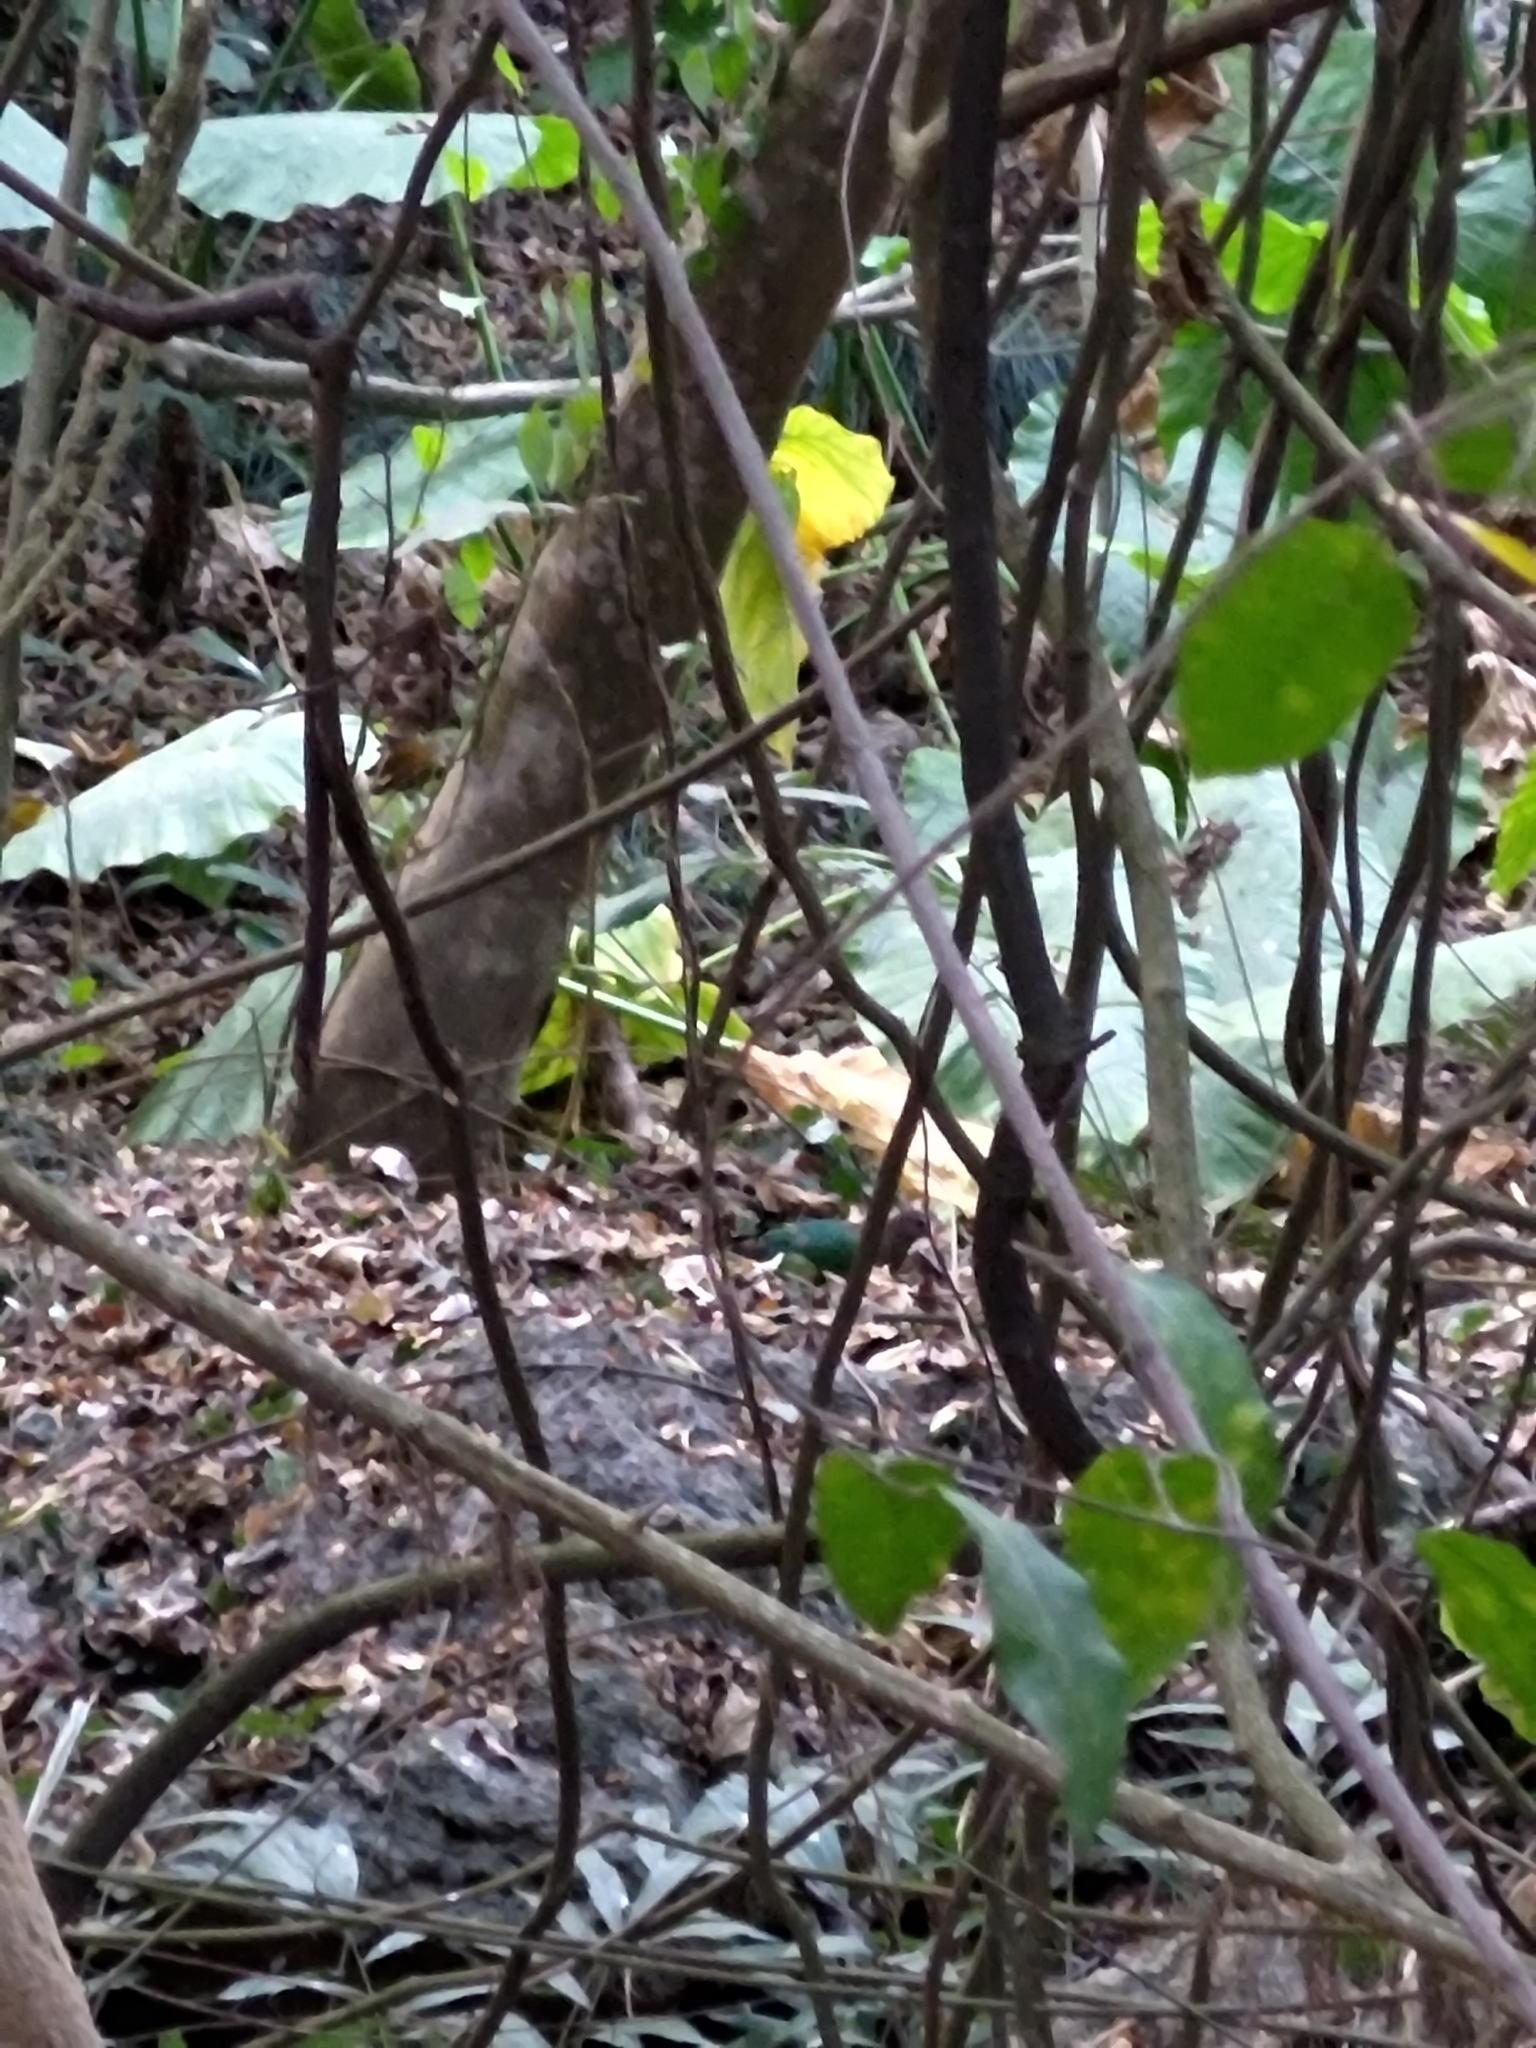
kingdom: Animalia
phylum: Chordata
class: Aves
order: Columbiformes
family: Columbidae
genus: Chalcophaps
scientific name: Chalcophaps indica
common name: Common emerald dove
